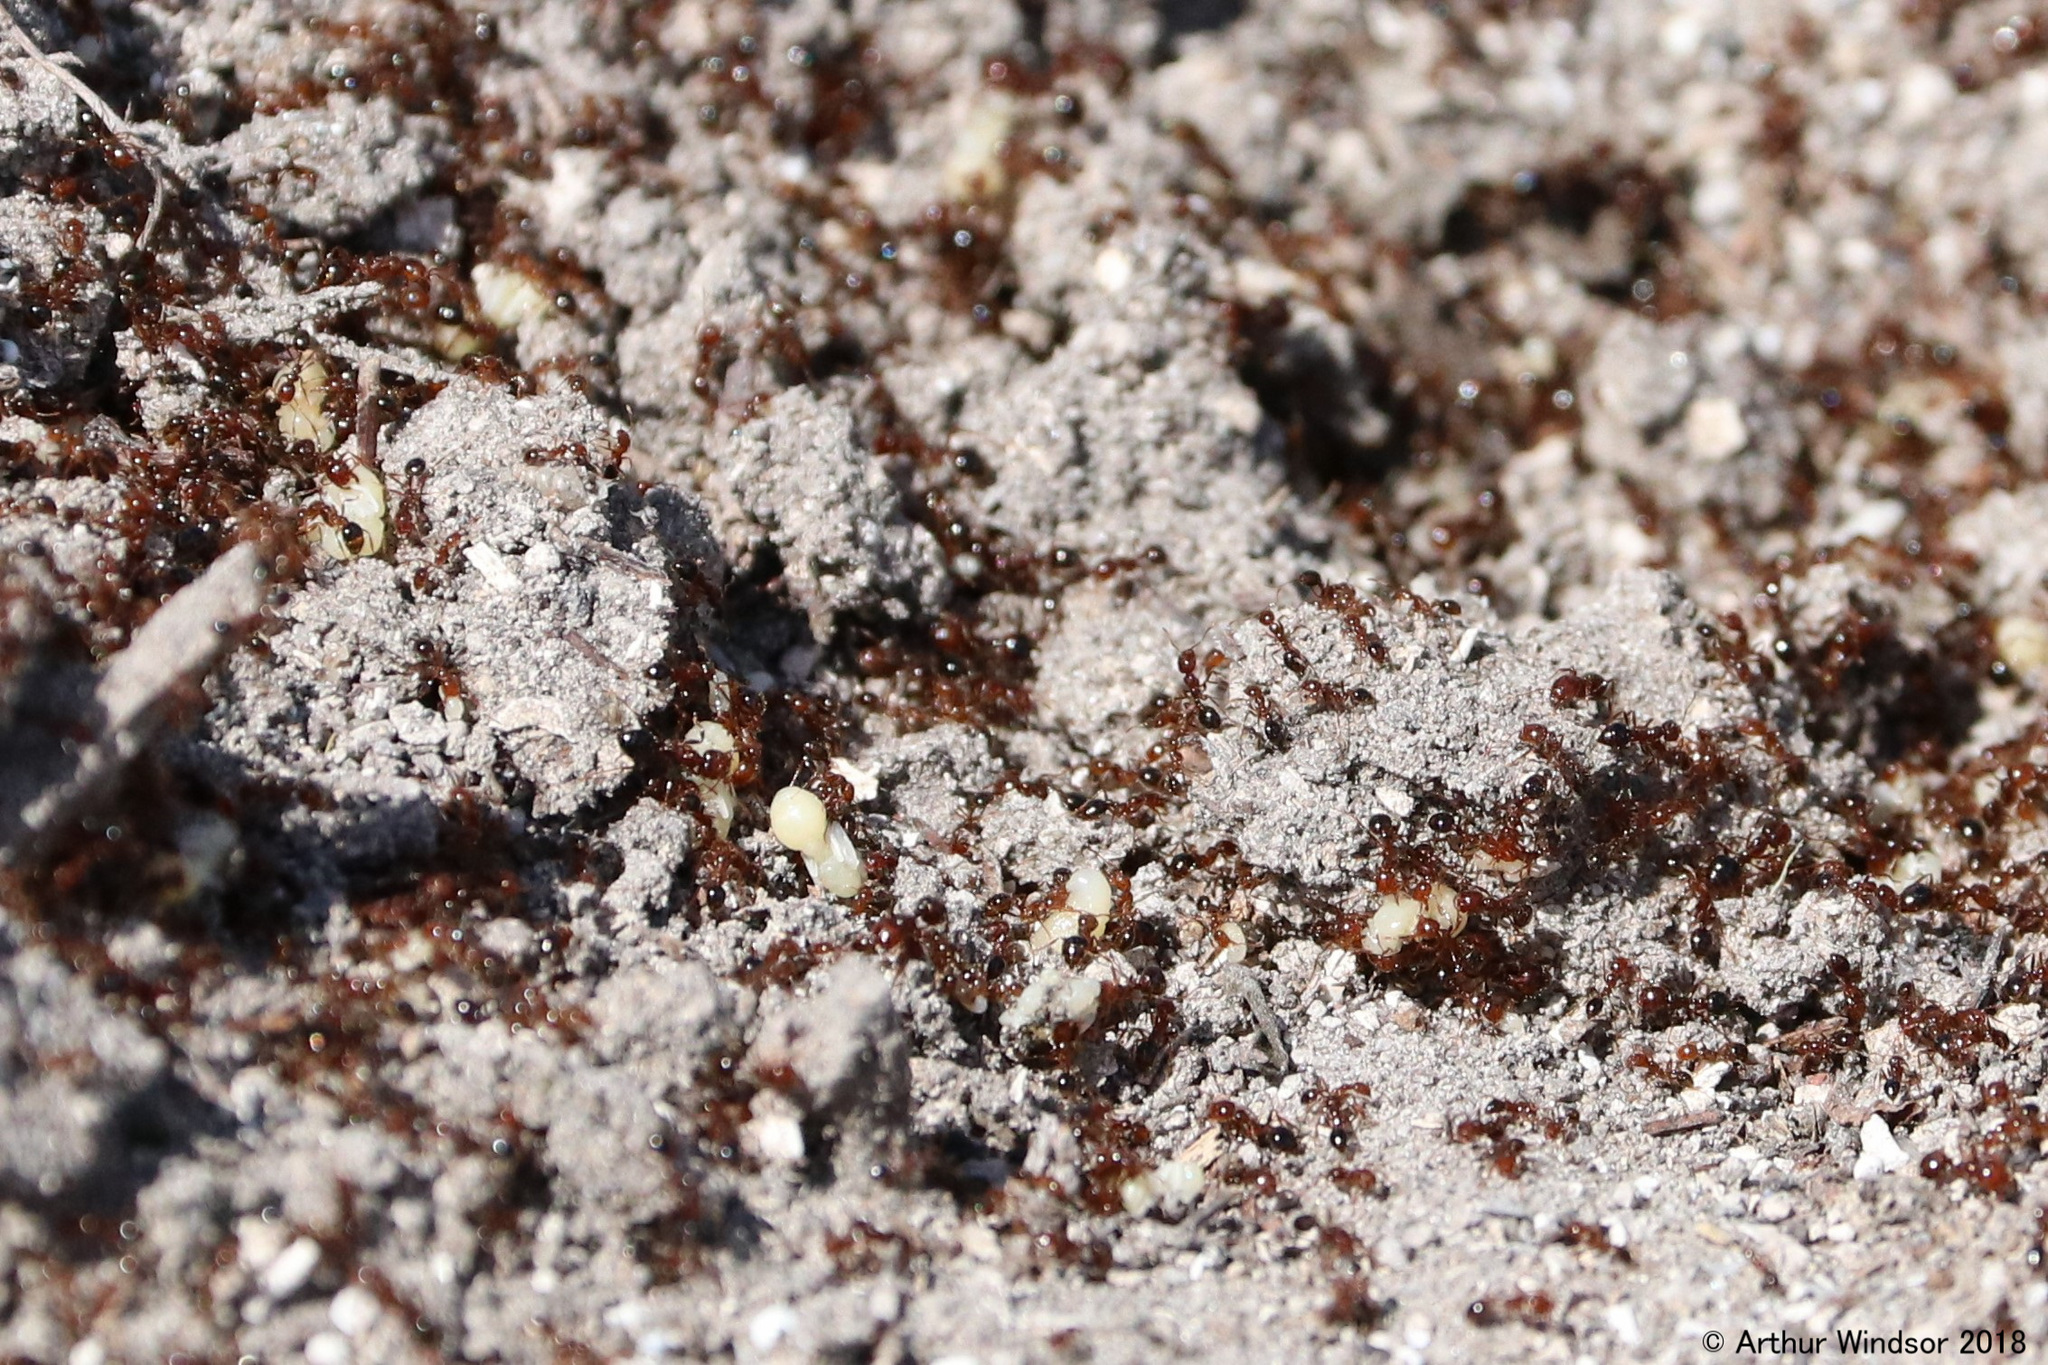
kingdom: Animalia
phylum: Arthropoda
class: Insecta
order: Hymenoptera
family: Formicidae
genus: Solenopsis
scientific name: Solenopsis invicta
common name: Red imported fire ant
